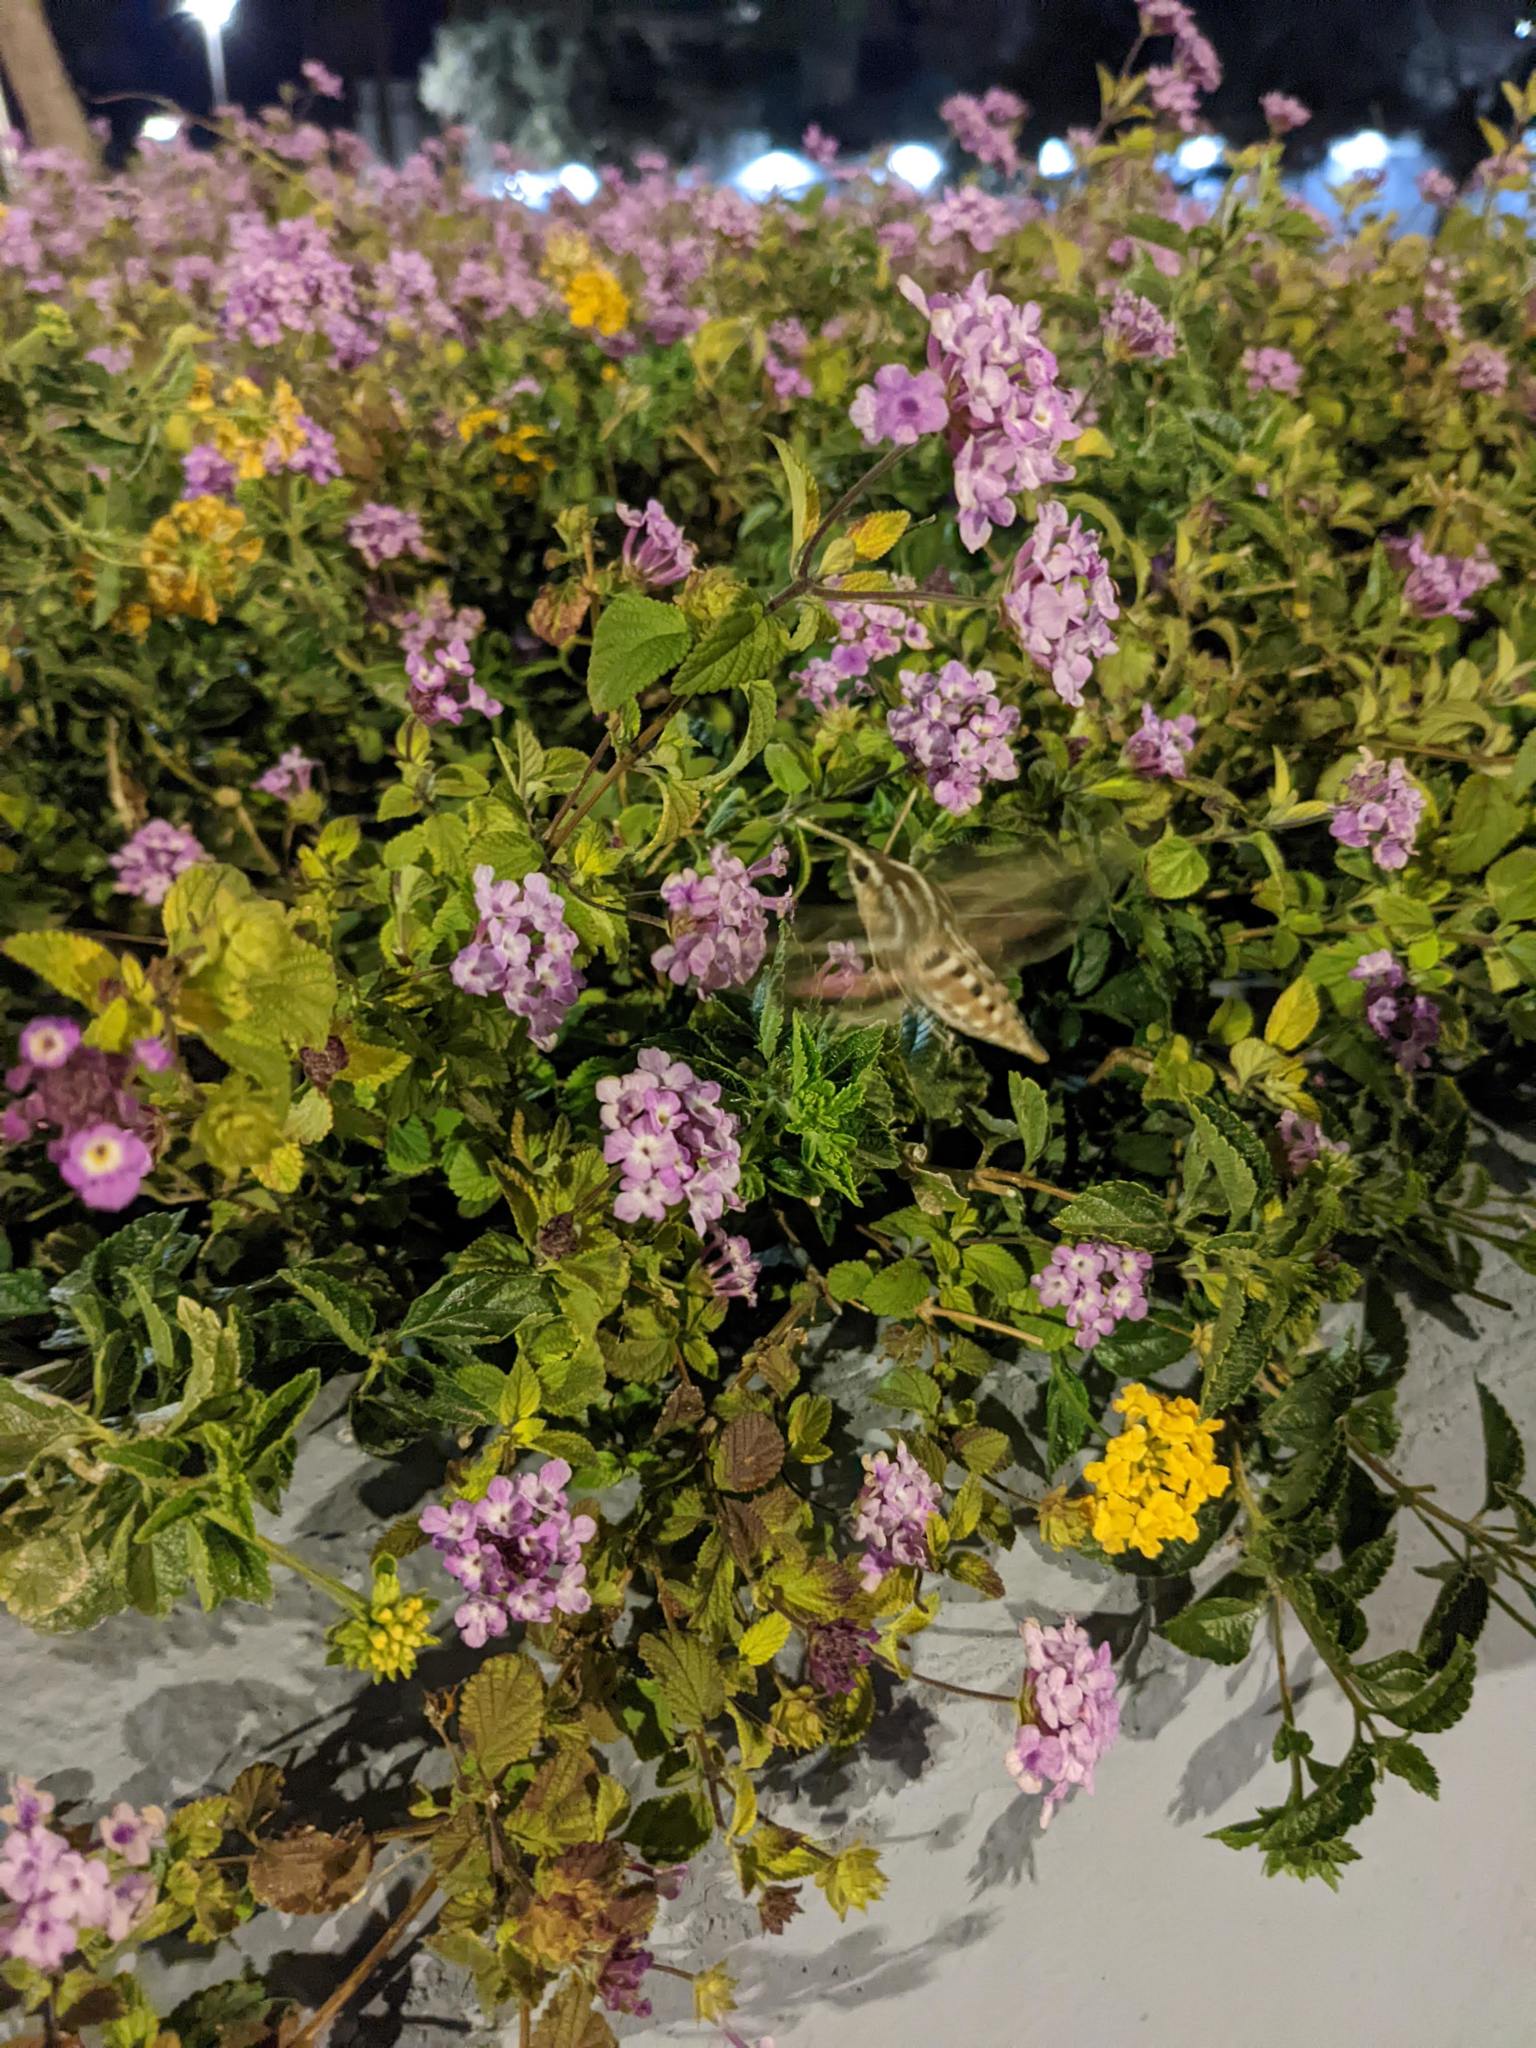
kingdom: Animalia
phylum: Arthropoda
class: Insecta
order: Lepidoptera
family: Sphingidae
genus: Hyles
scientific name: Hyles lineata
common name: White-lined sphinx
